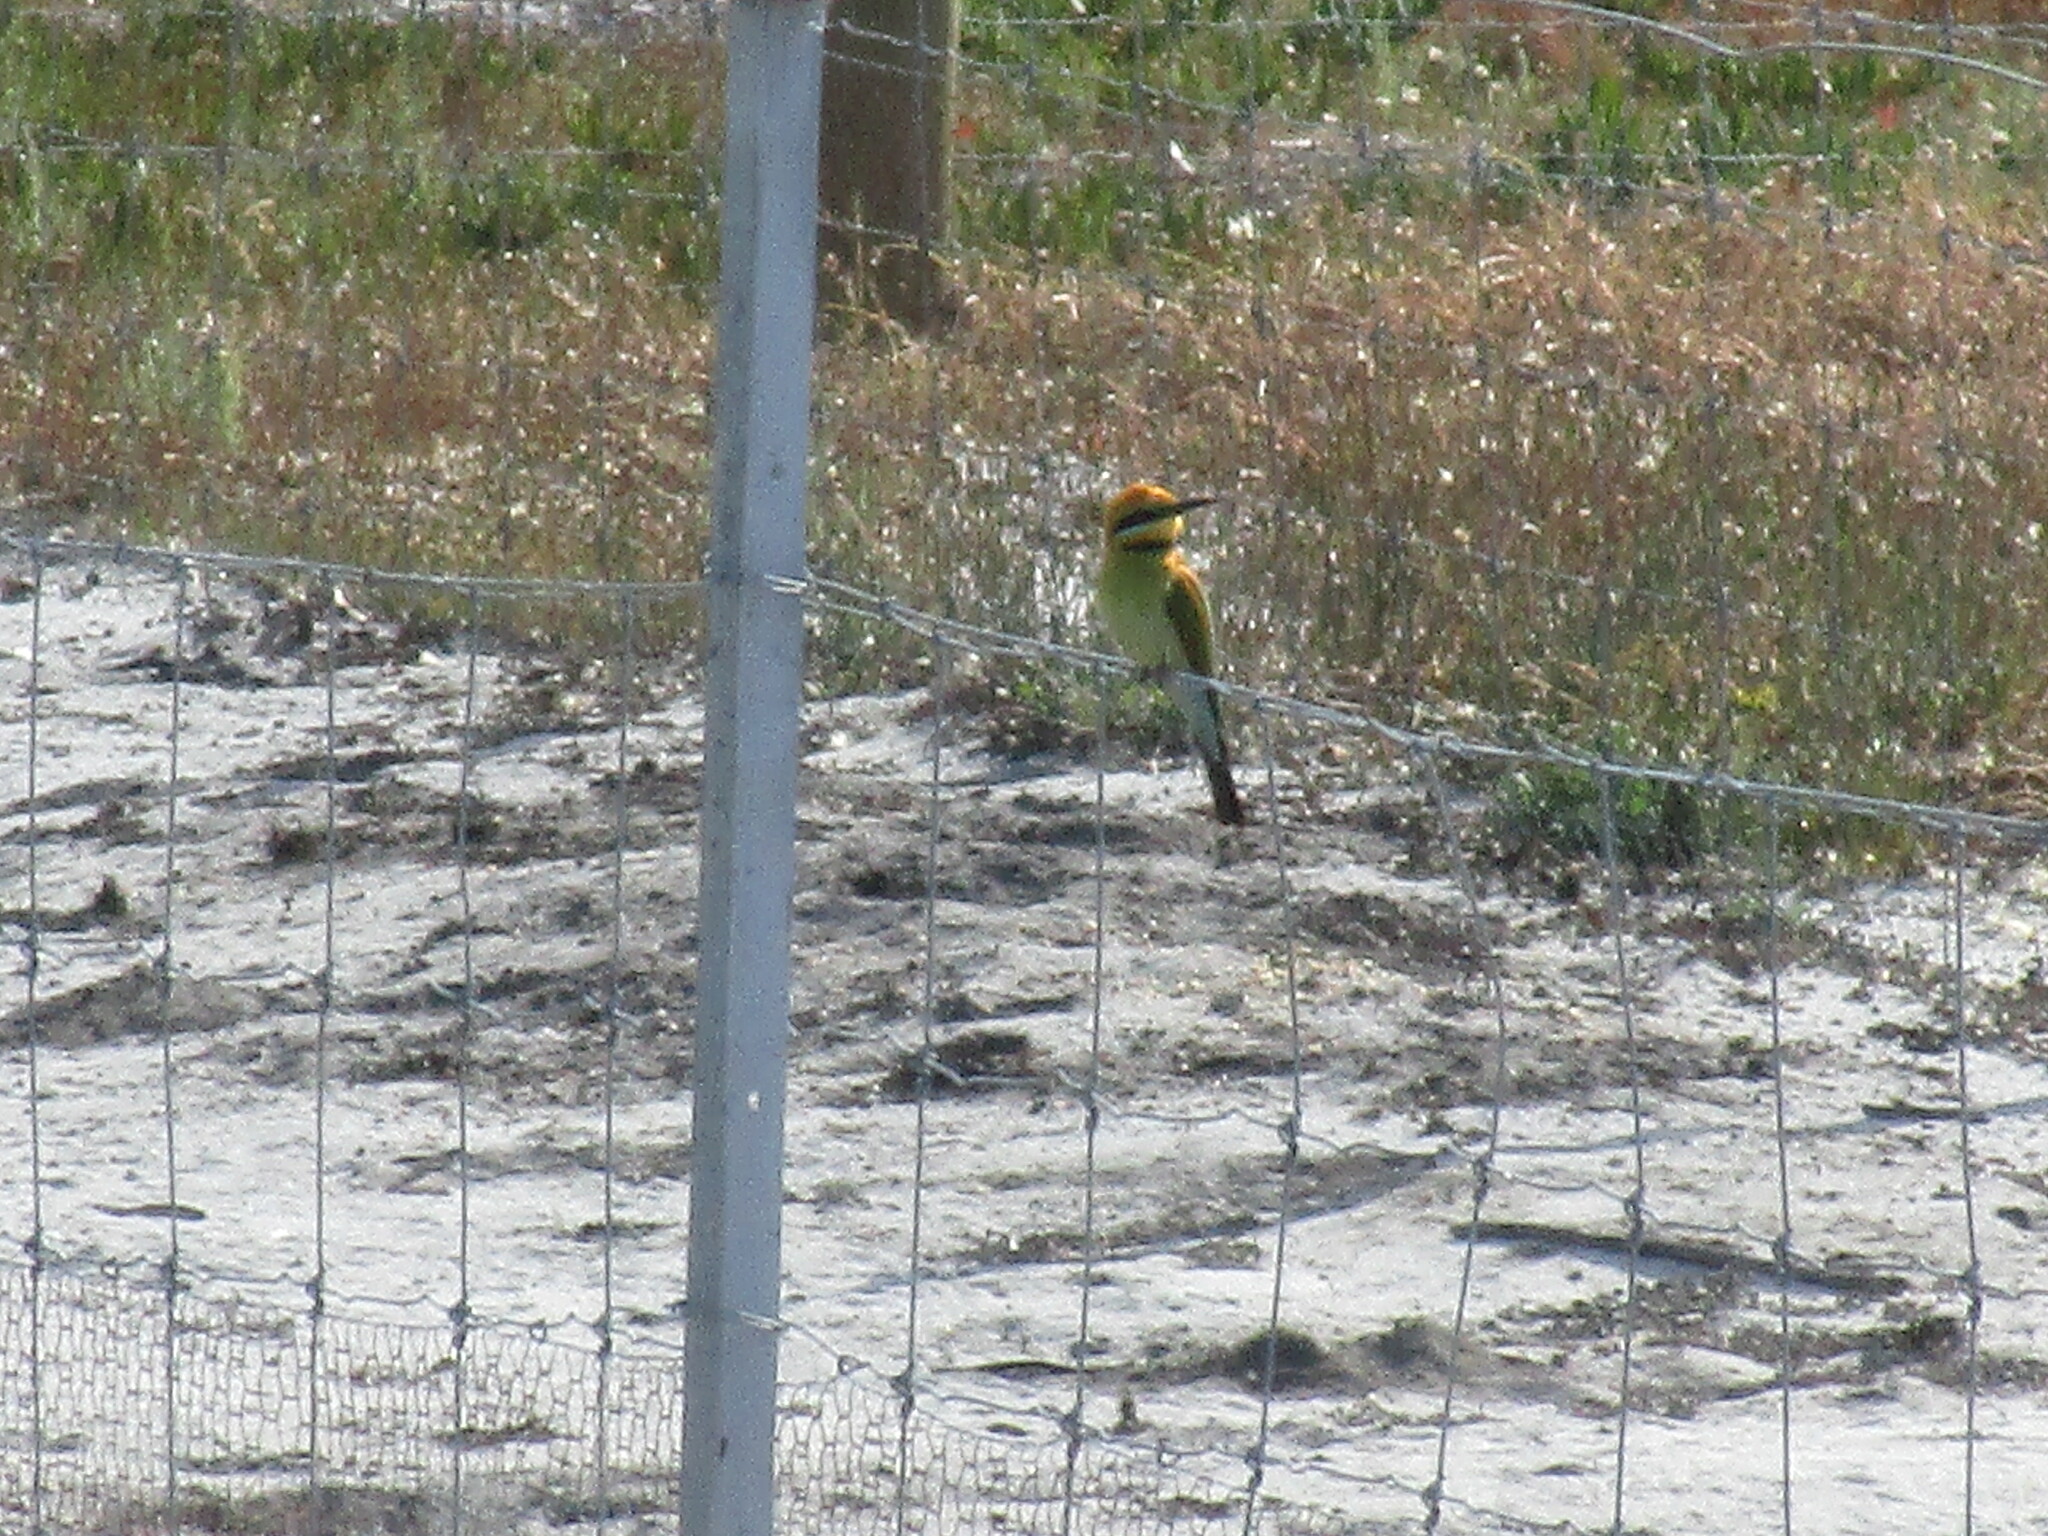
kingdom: Animalia
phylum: Chordata
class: Aves
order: Coraciiformes
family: Meropidae
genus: Merops
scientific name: Merops ornatus
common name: Rainbow bee-eater
